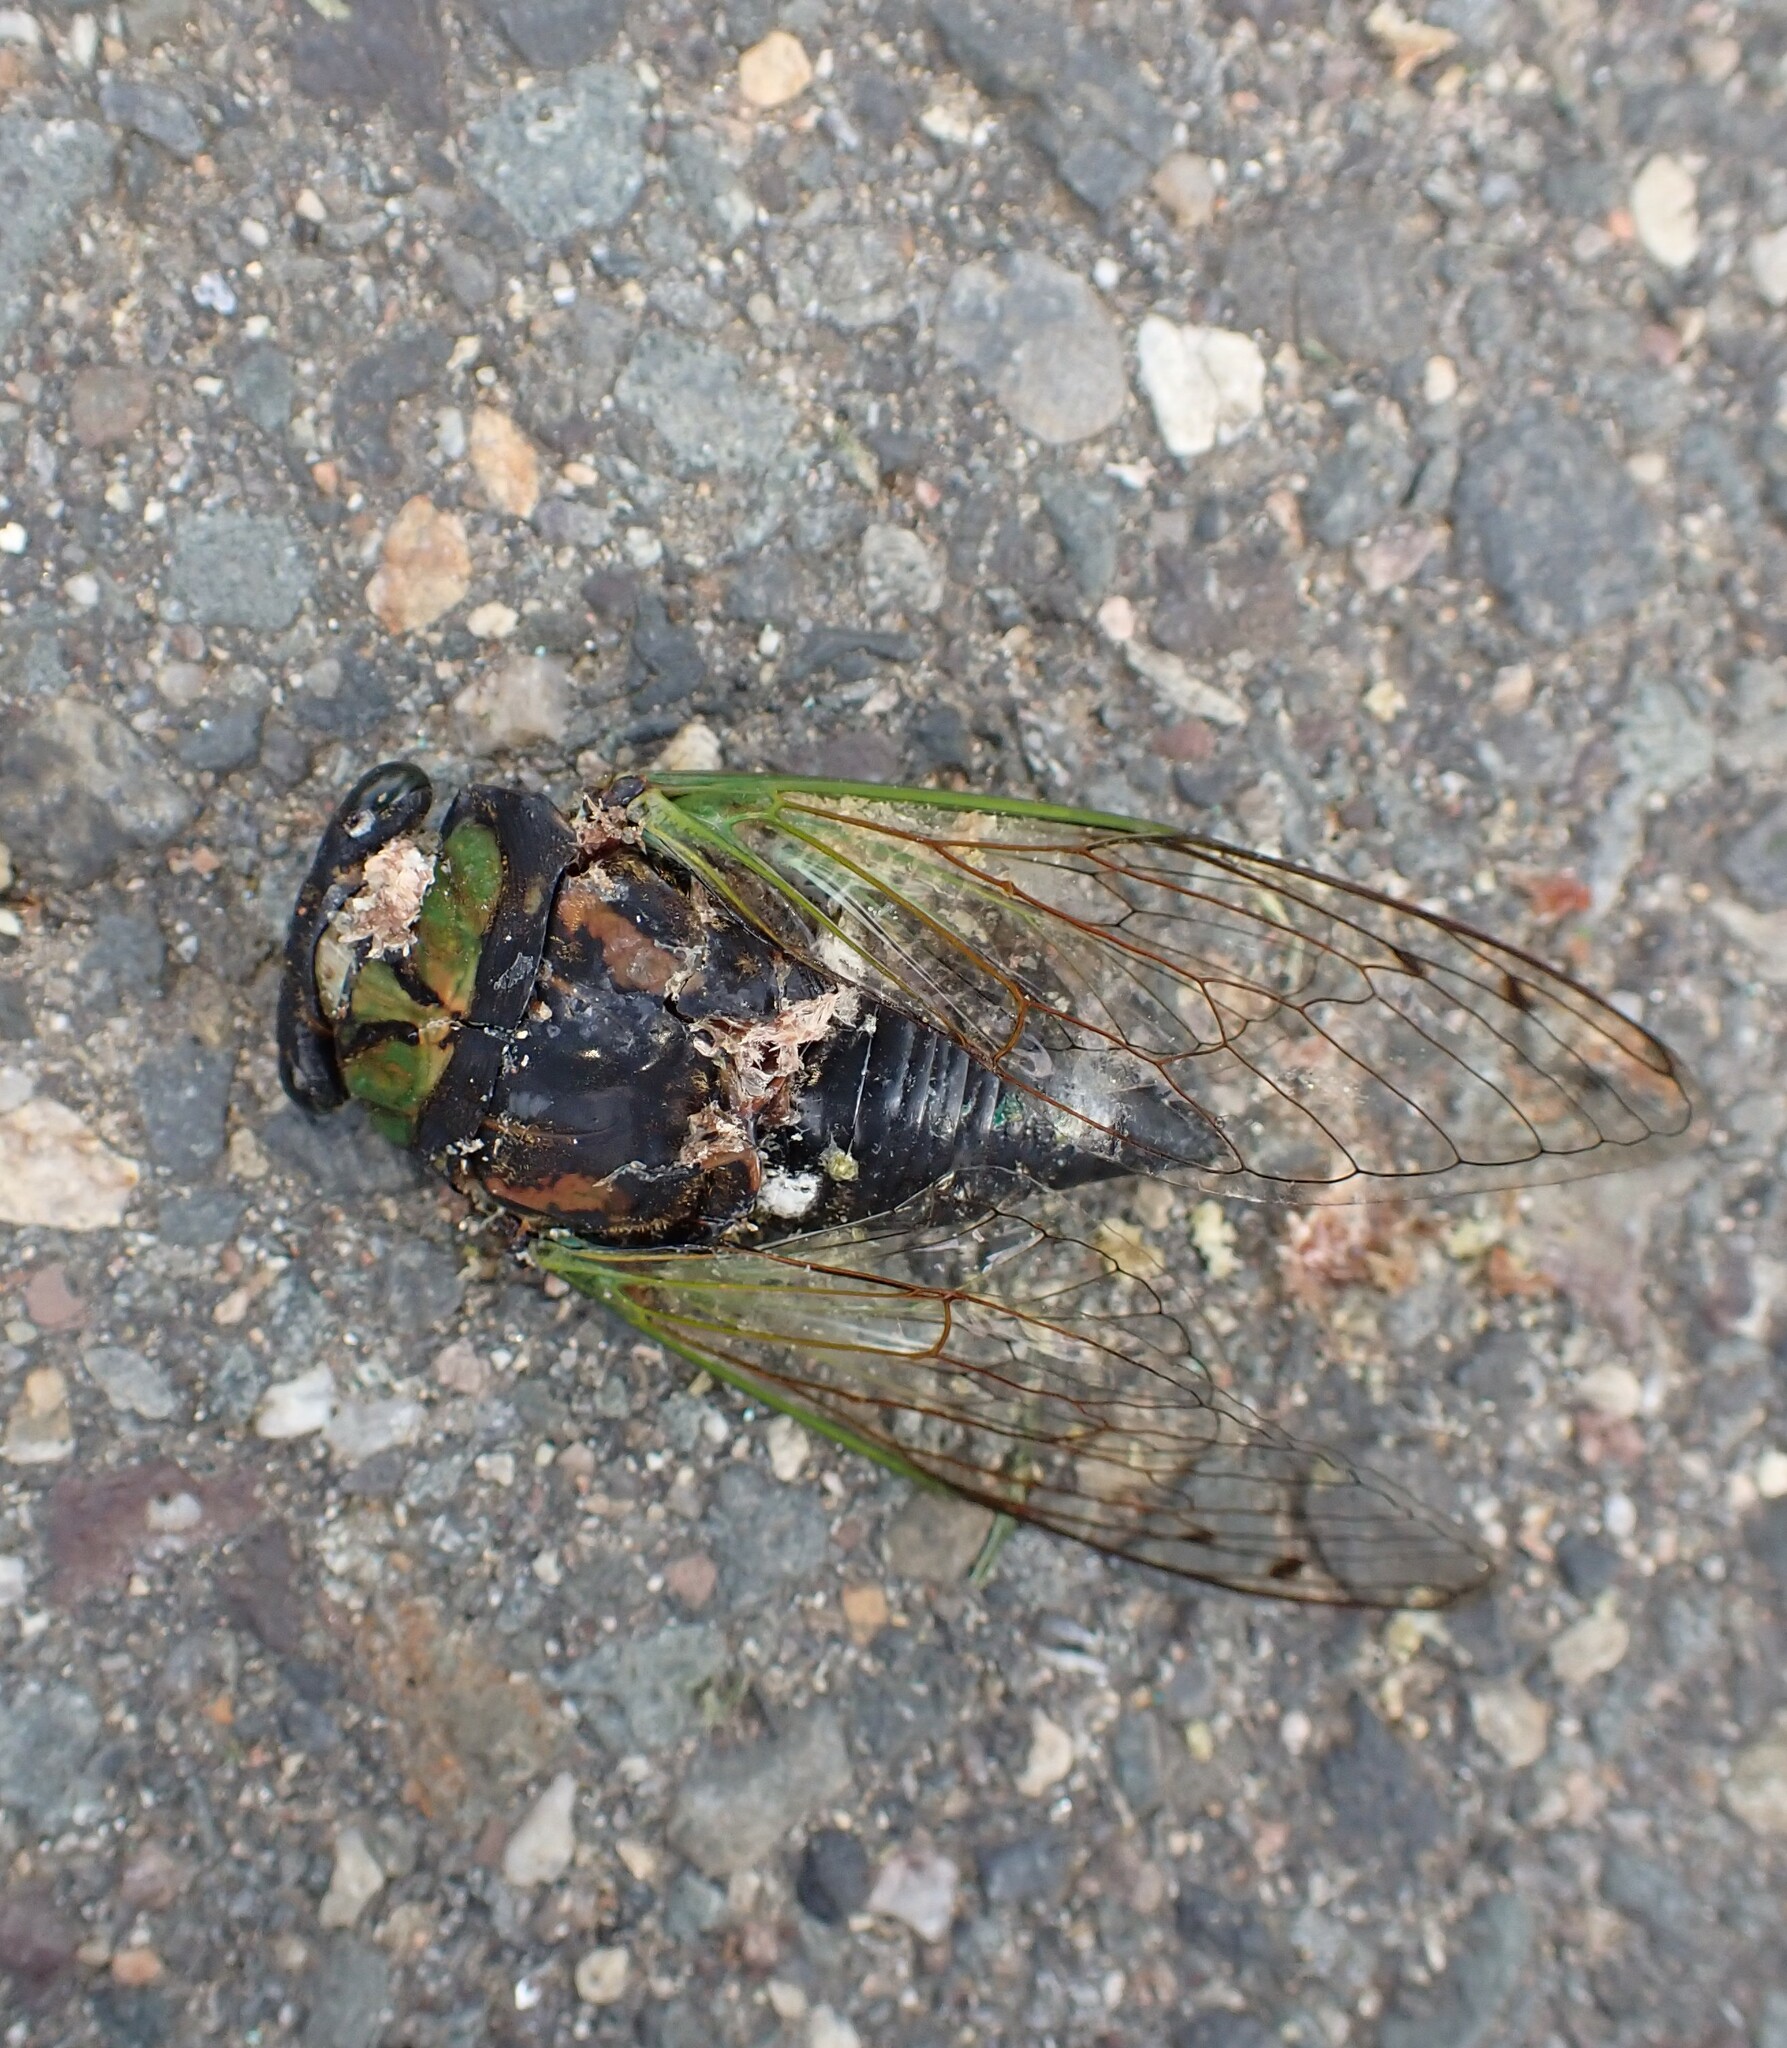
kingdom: Animalia
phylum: Arthropoda
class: Insecta
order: Hemiptera
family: Cicadidae
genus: Neotibicen
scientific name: Neotibicen tibicen
